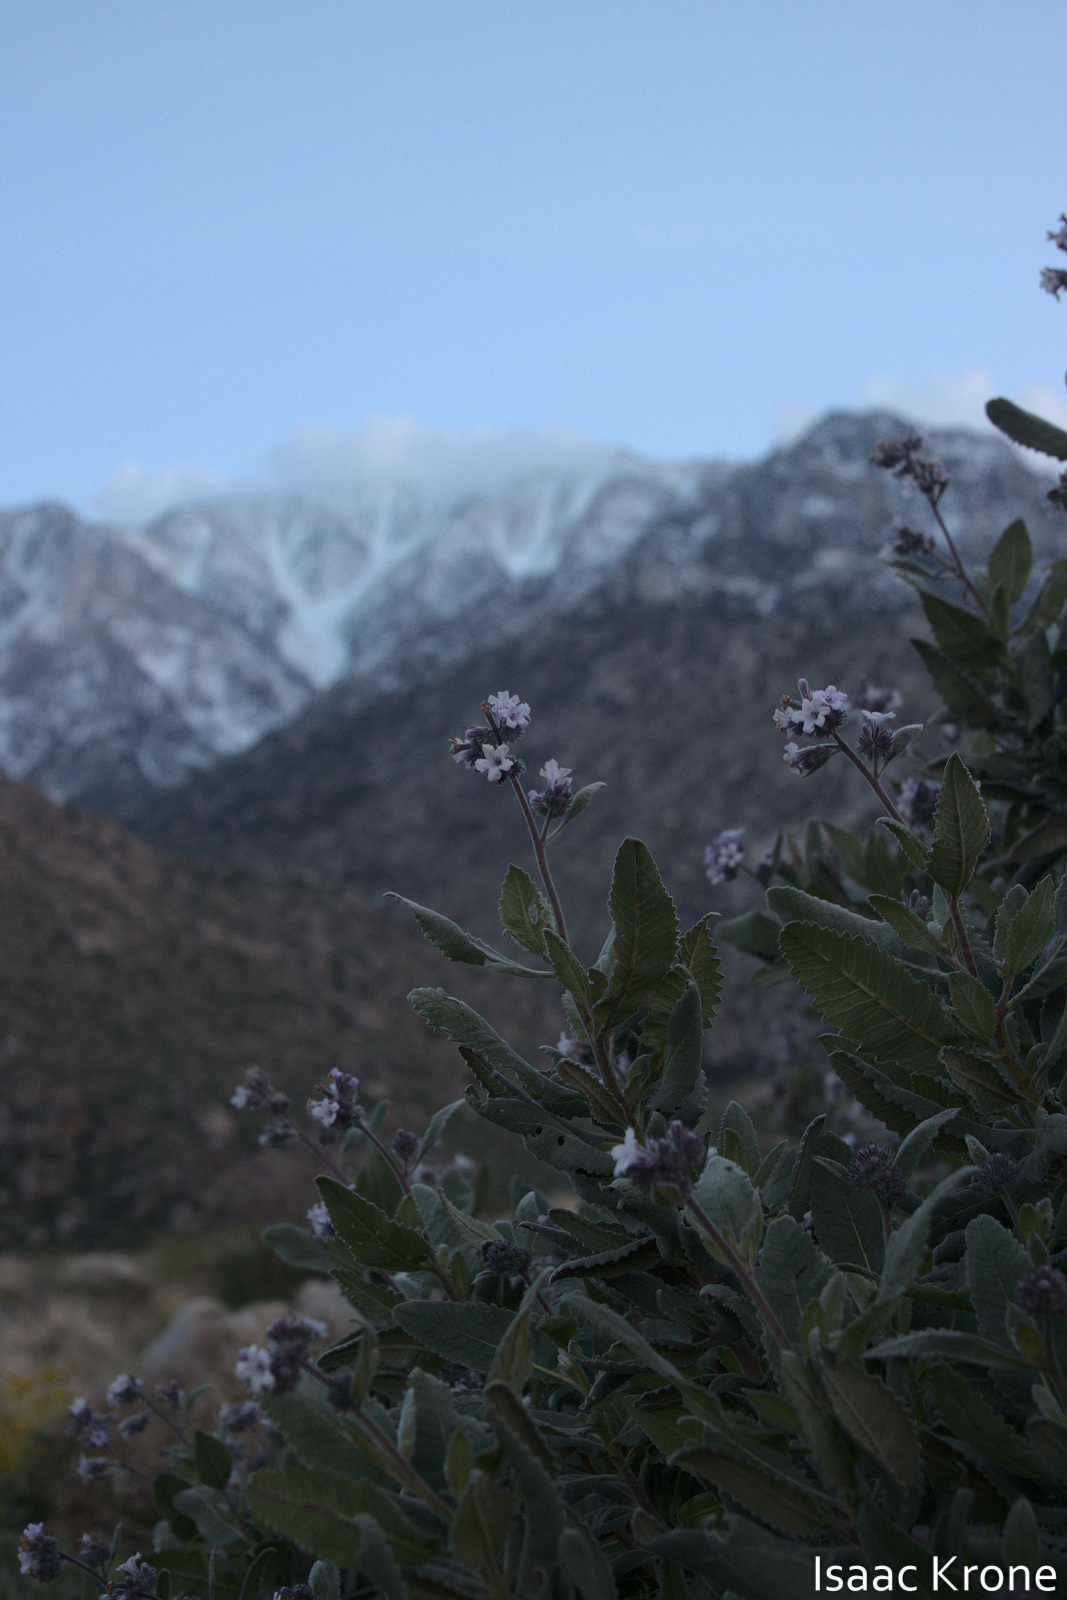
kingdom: Plantae
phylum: Tracheophyta
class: Magnoliopsida
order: Boraginales
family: Namaceae
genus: Eriodictyon
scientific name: Eriodictyon crassifolium
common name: Thick-leaf yerba-santa
